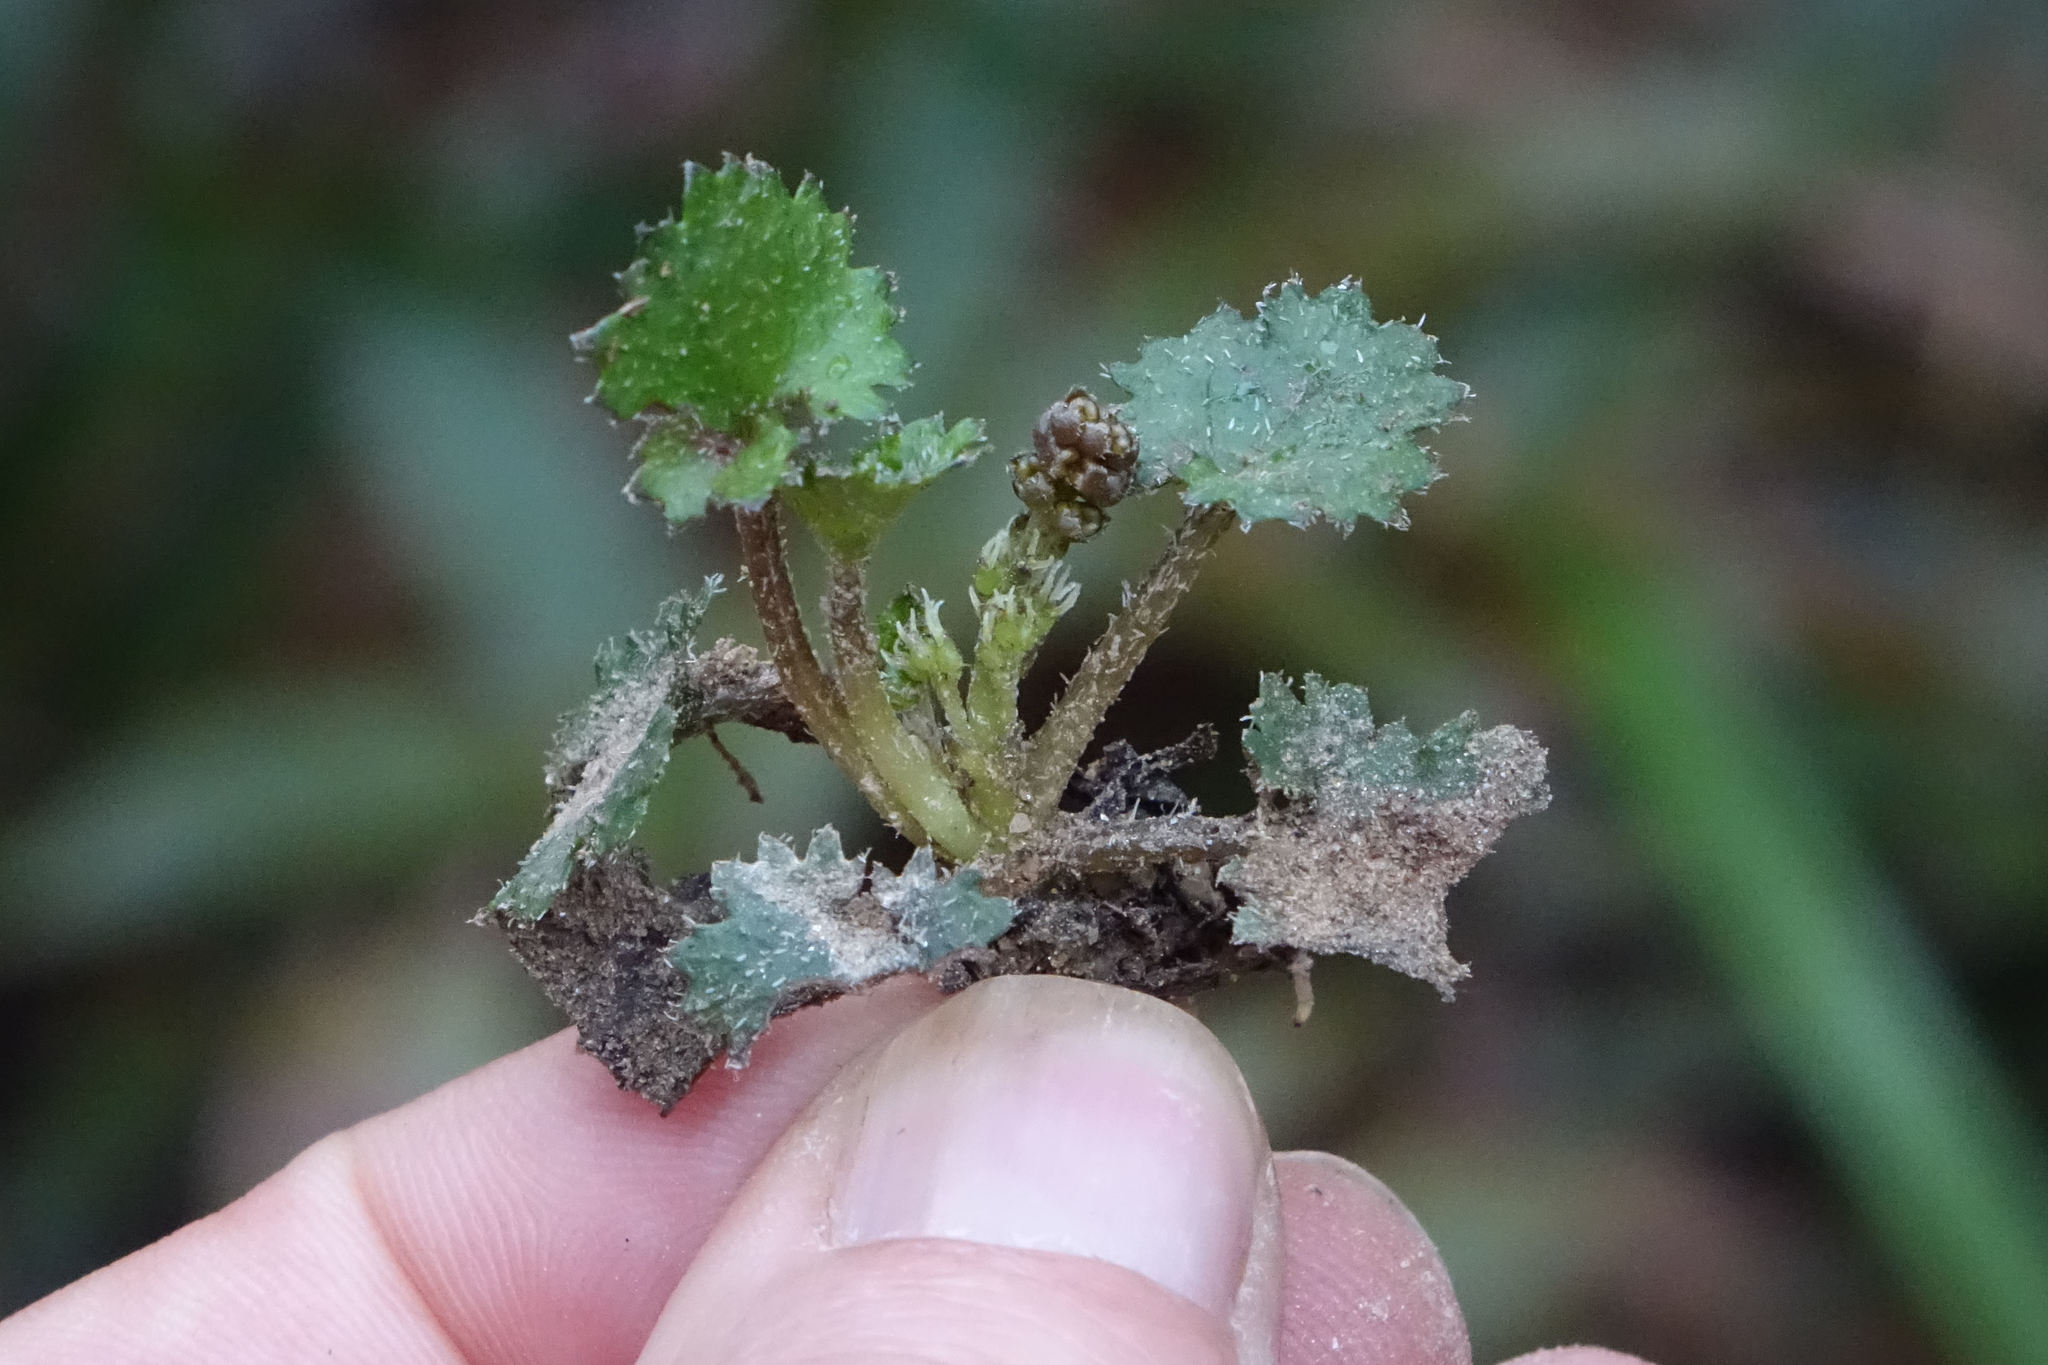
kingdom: Plantae
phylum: Tracheophyta
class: Magnoliopsida
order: Gunnerales
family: Gunneraceae
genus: Gunnera
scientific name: Gunnera monoica
